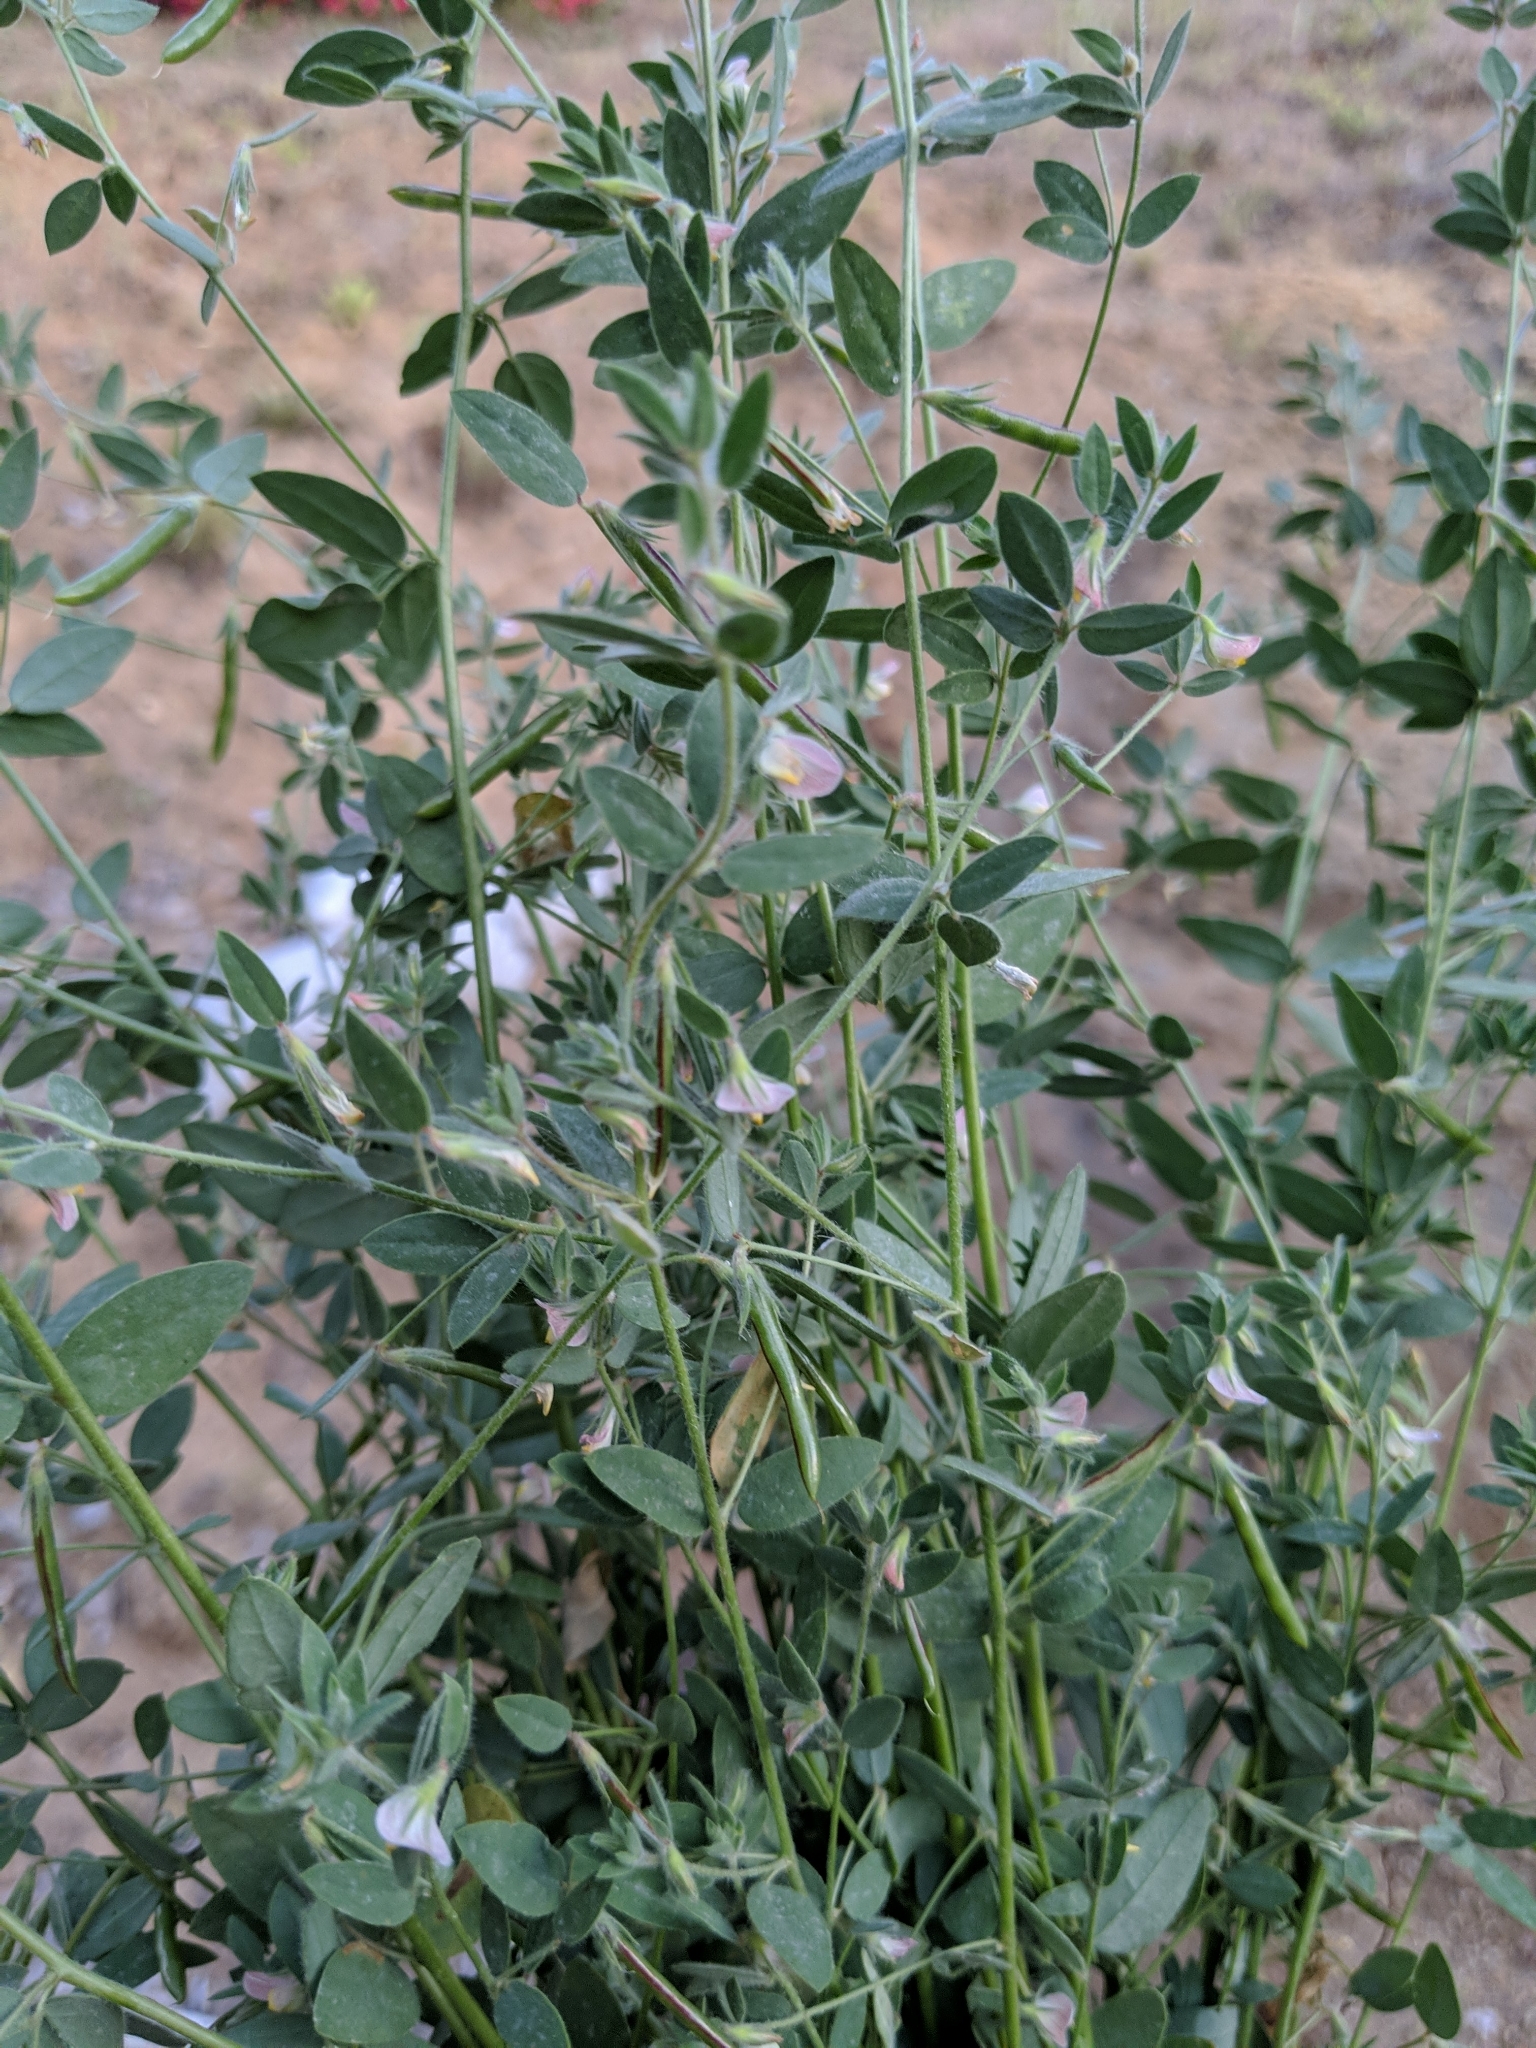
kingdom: Plantae
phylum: Tracheophyta
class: Magnoliopsida
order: Fabales
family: Fabaceae
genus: Acmispon
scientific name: Acmispon americanus
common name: American bird's-foot trefoil
